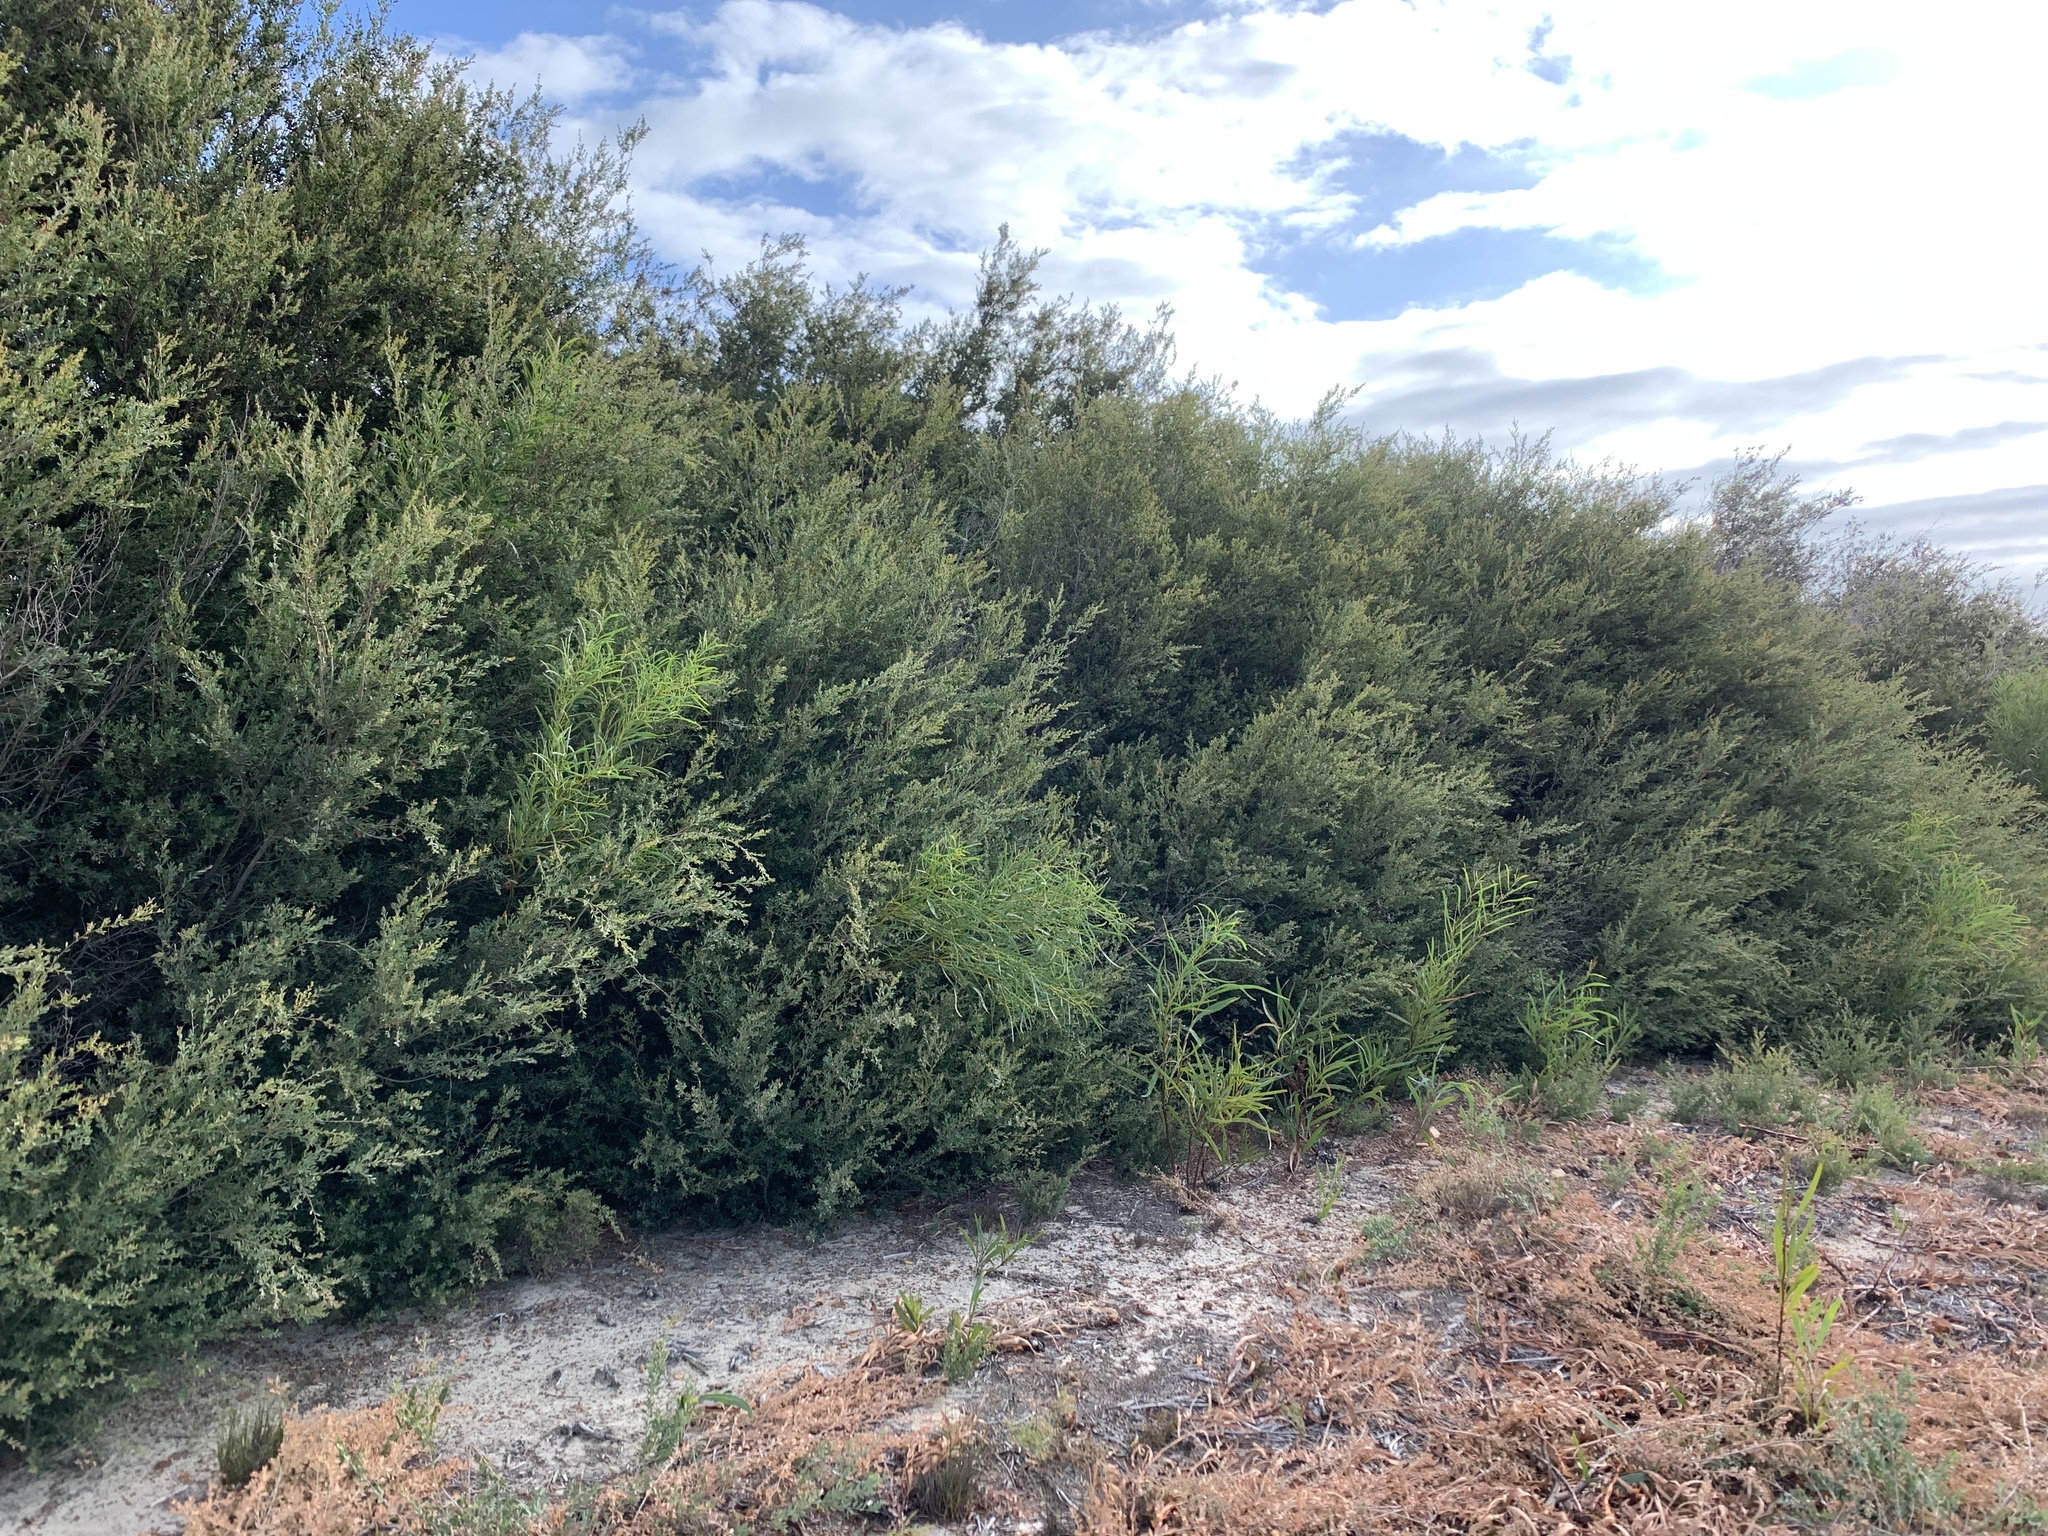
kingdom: Plantae
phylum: Tracheophyta
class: Magnoliopsida
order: Myrtales
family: Myrtaceae
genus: Leptospermum
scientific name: Leptospermum laevigatum
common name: Australian teatree
